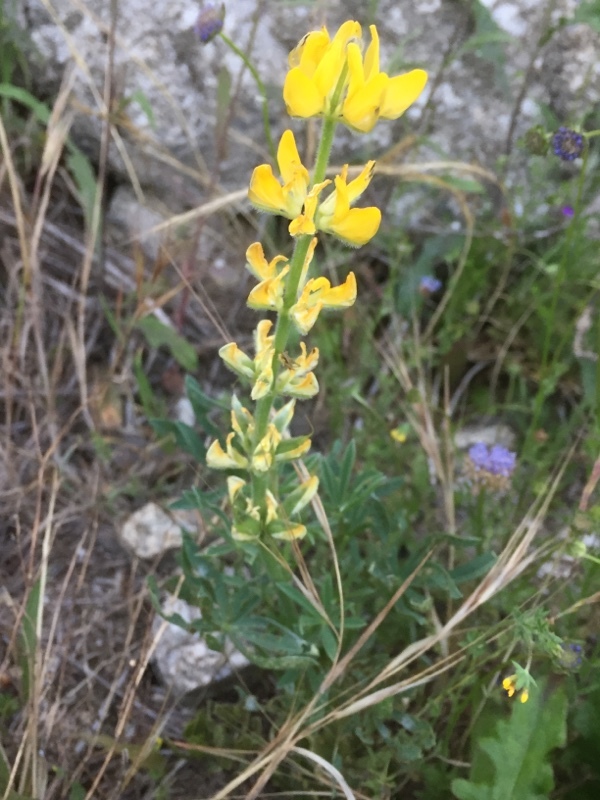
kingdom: Plantae
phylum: Tracheophyta
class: Magnoliopsida
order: Fabales
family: Fabaceae
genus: Lupinus
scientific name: Lupinus luteus
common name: European yellow lupine
